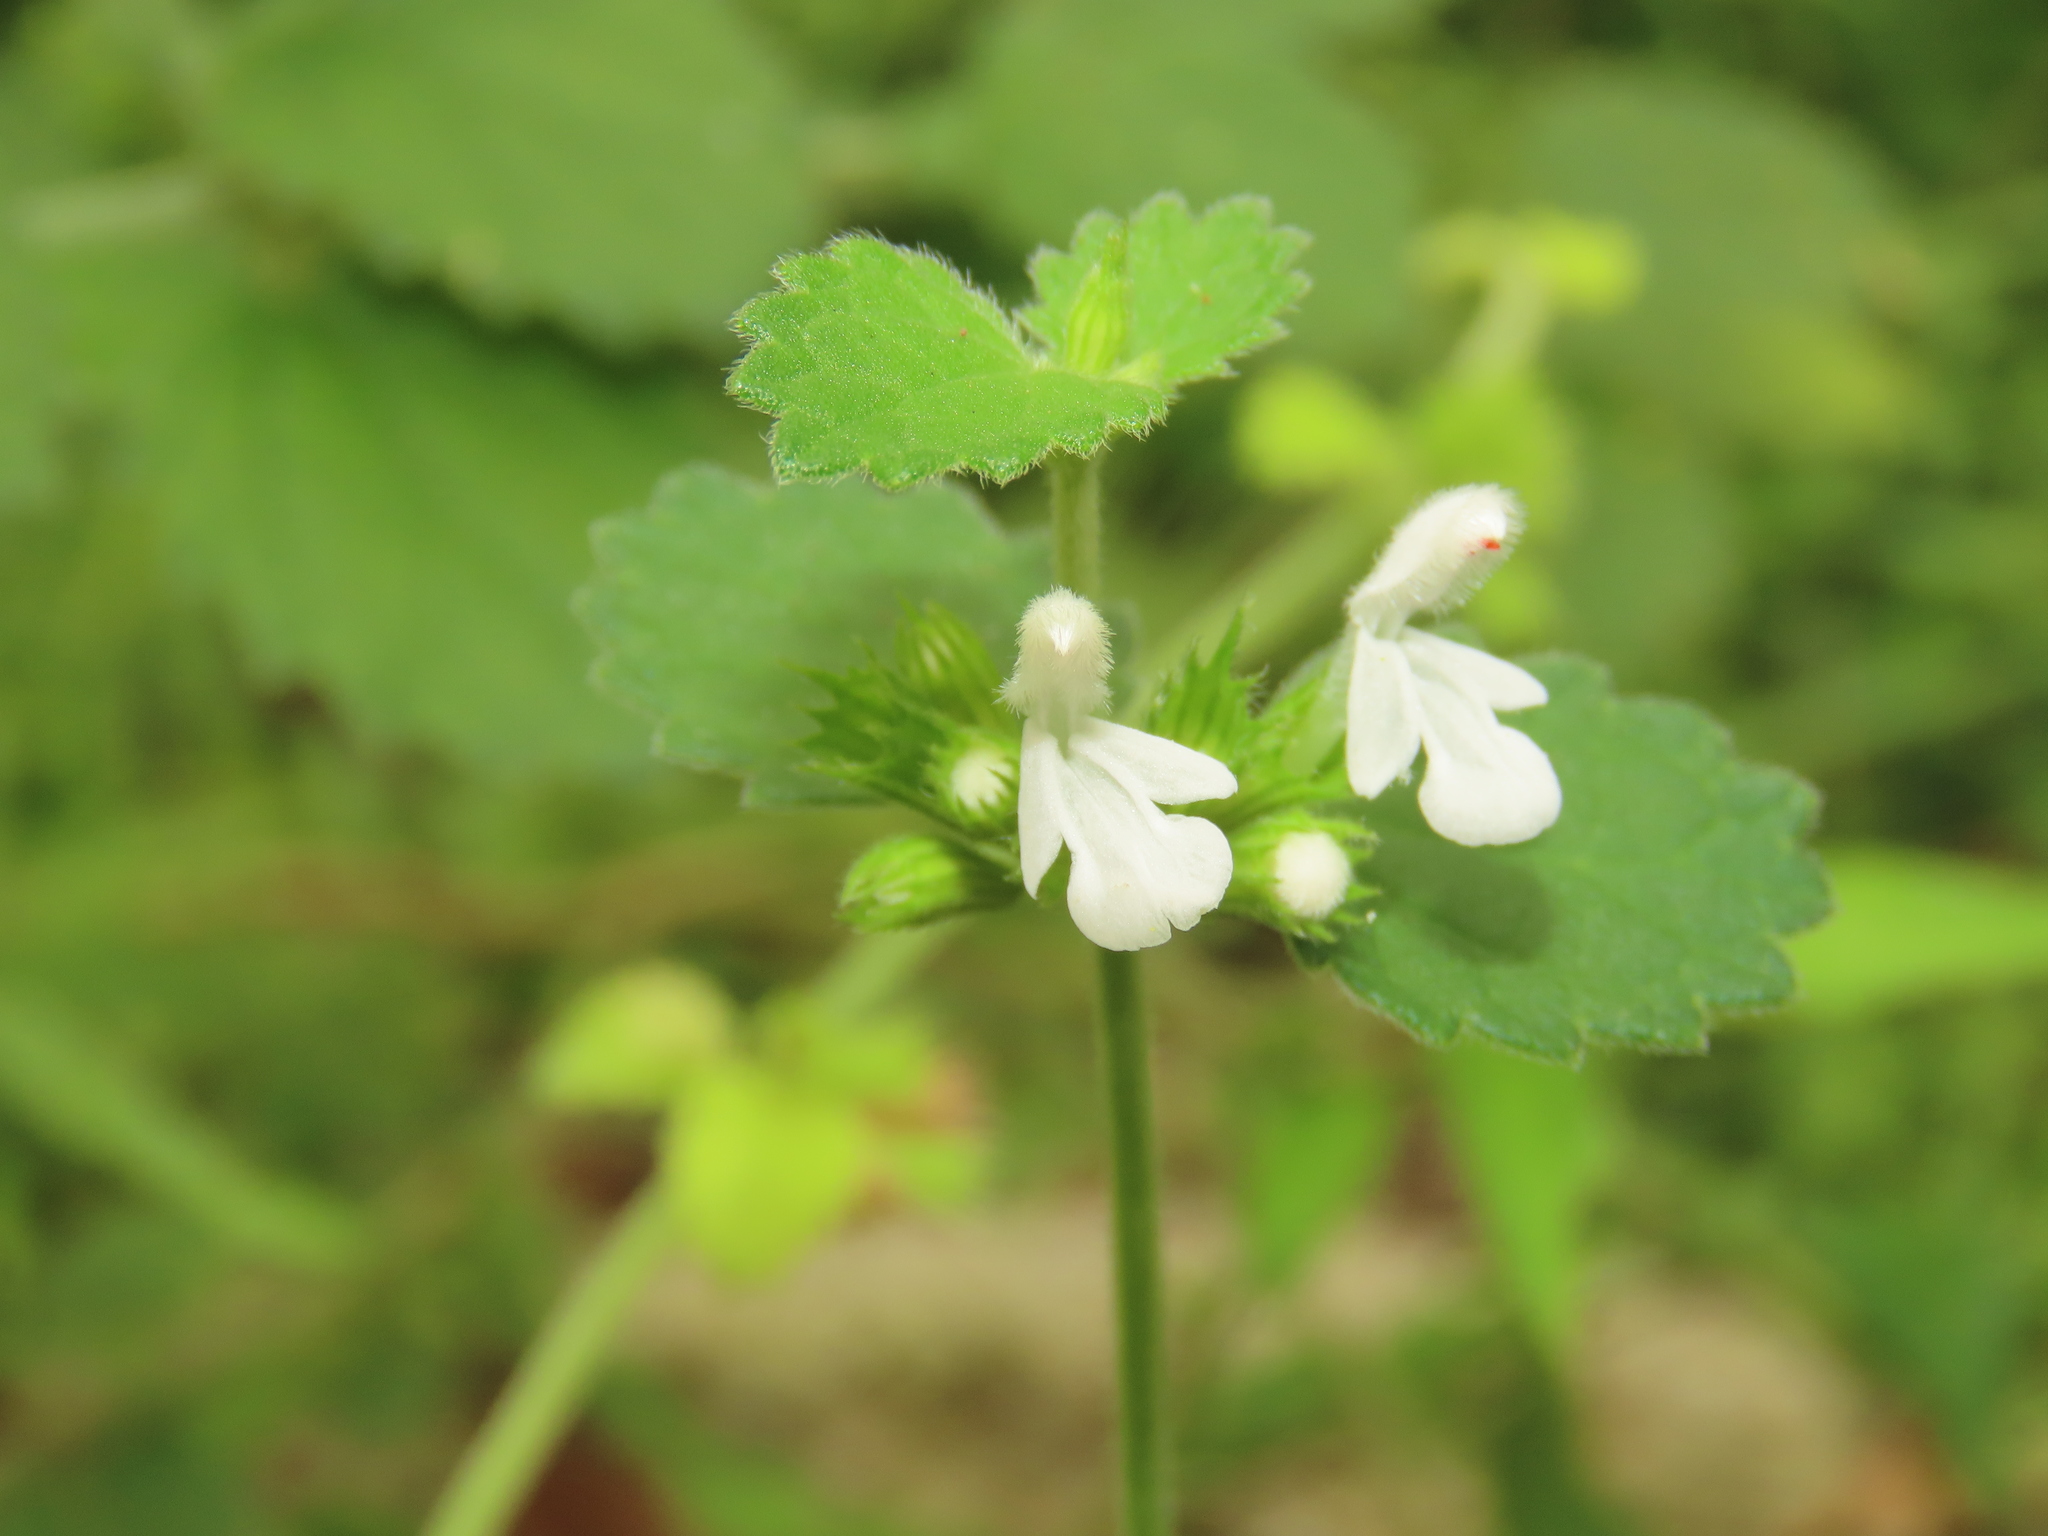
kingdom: Plantae
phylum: Tracheophyta
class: Magnoliopsida
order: Lamiales
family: Lamiaceae
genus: Leucas
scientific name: Leucas chinensis
